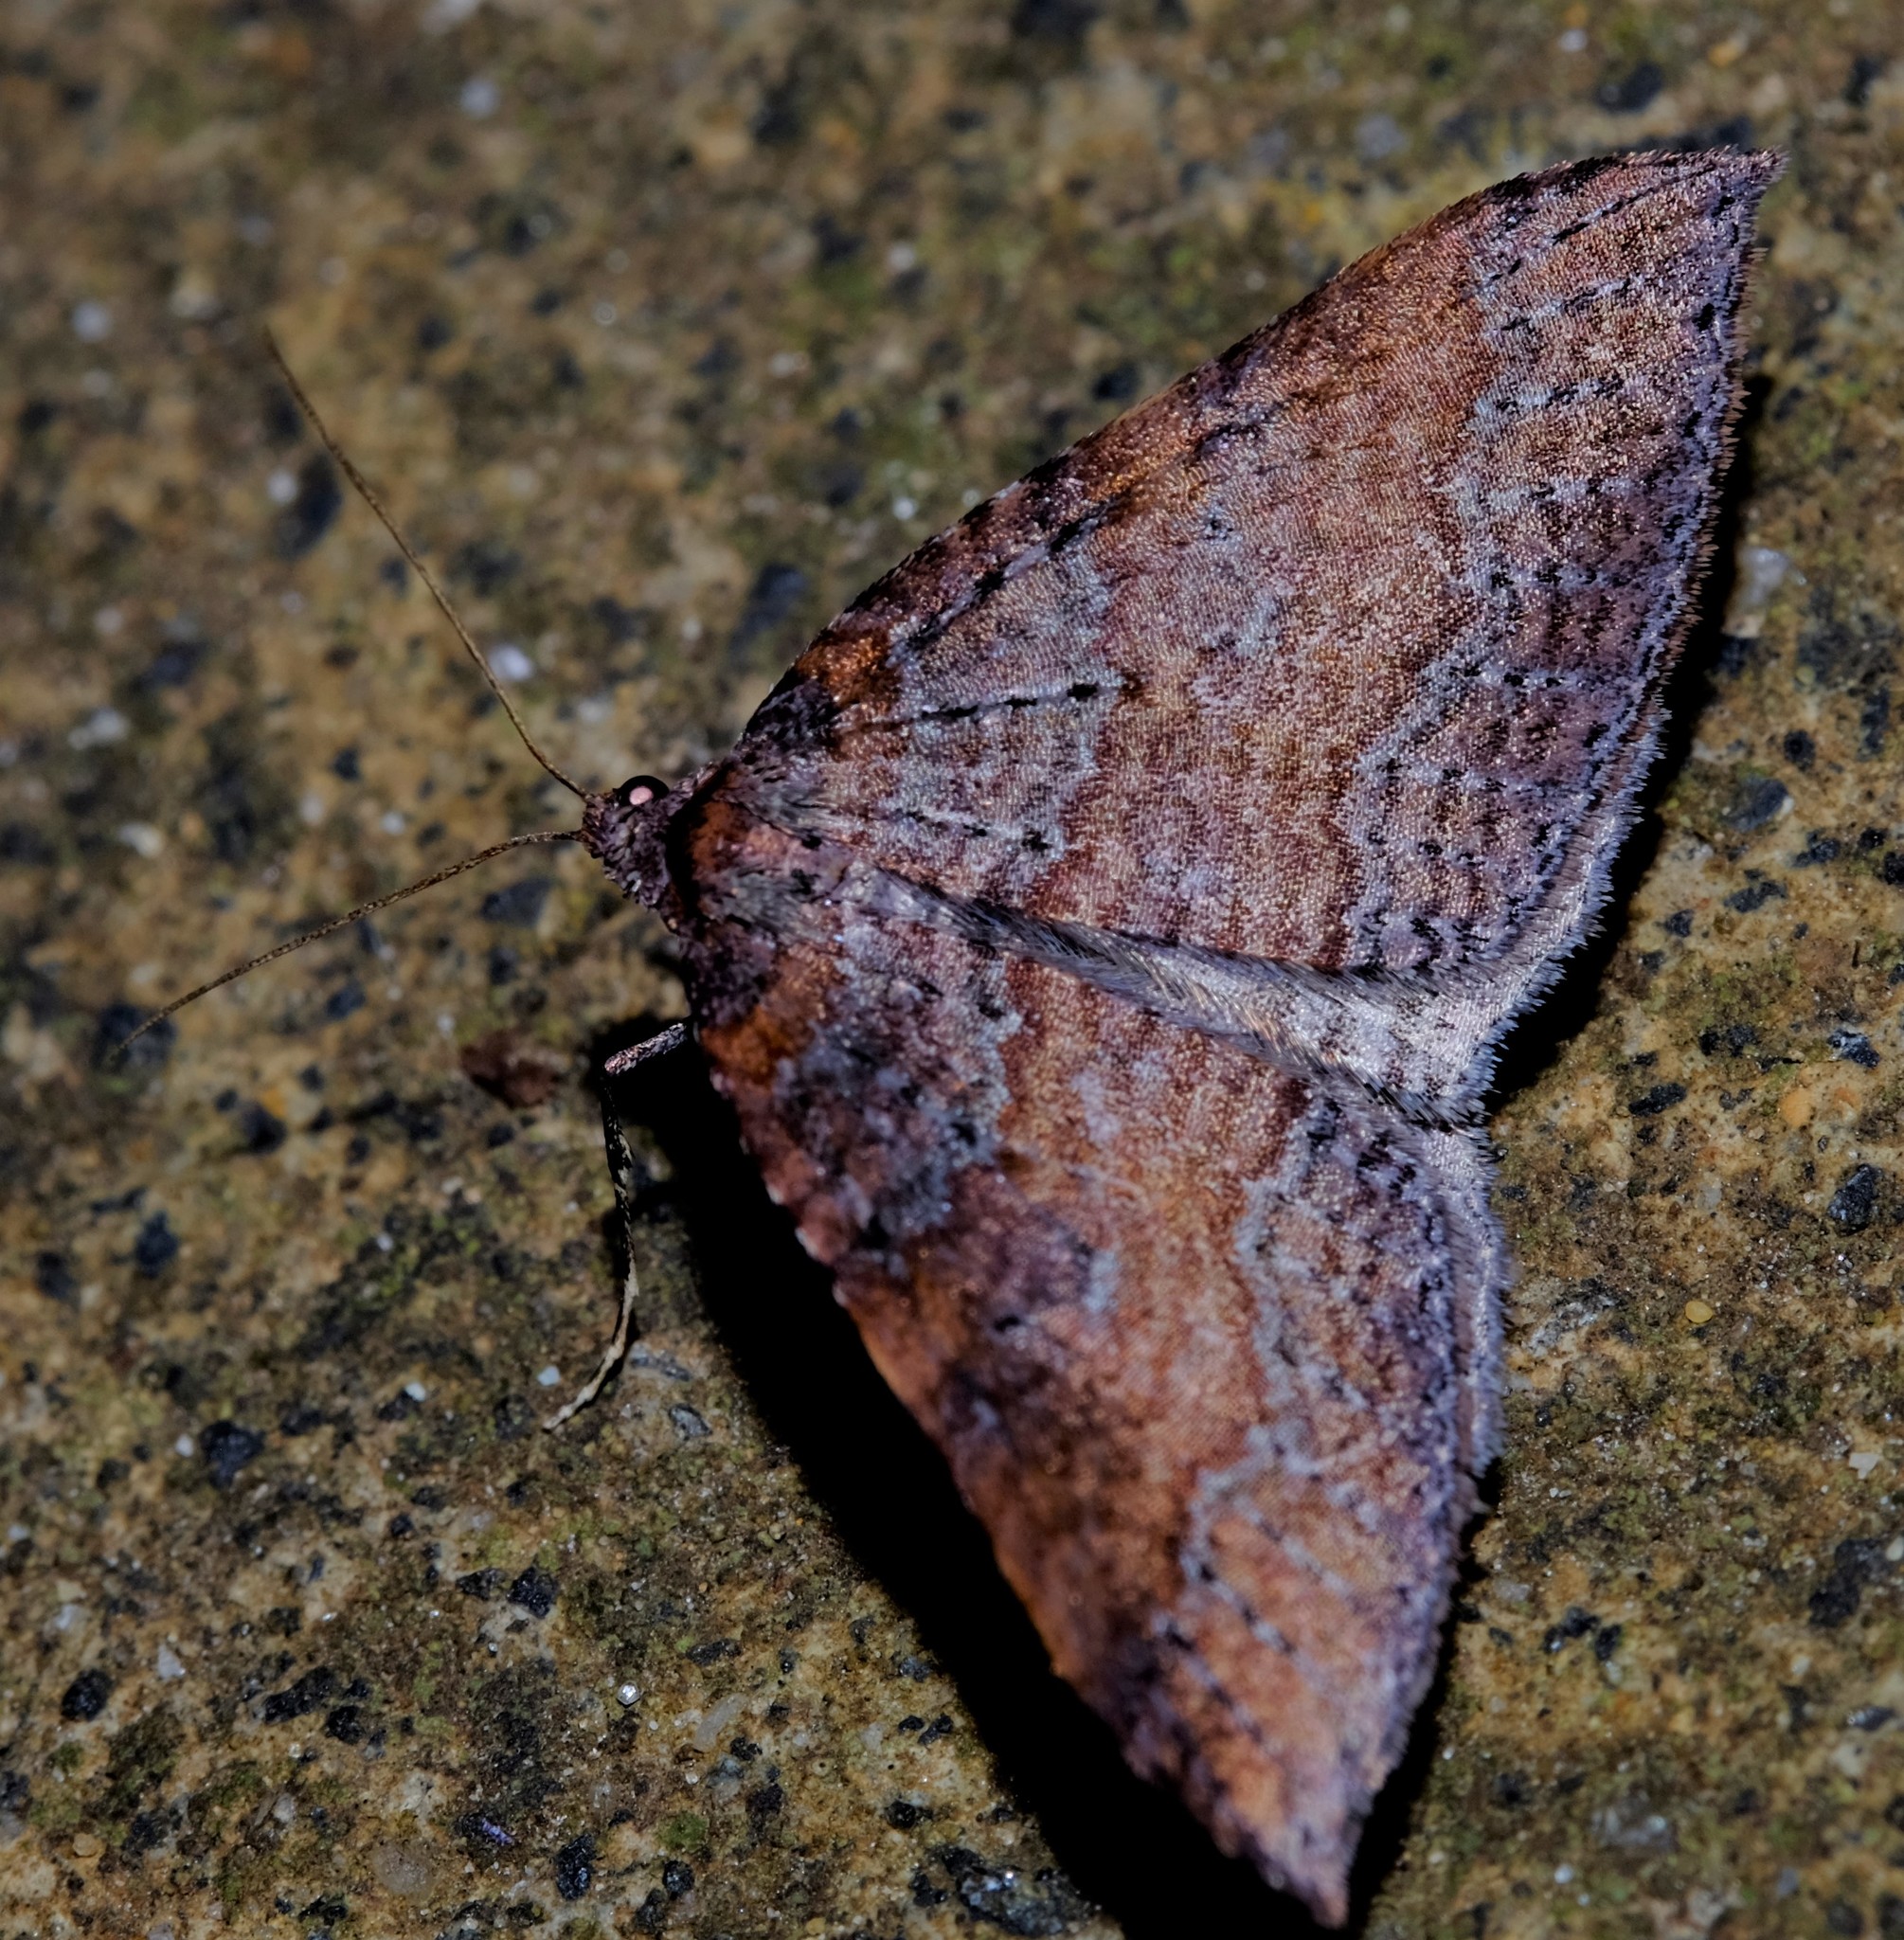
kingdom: Animalia
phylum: Arthropoda
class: Insecta
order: Lepidoptera
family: Geometridae
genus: Larentia
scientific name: Larentia apotoma
